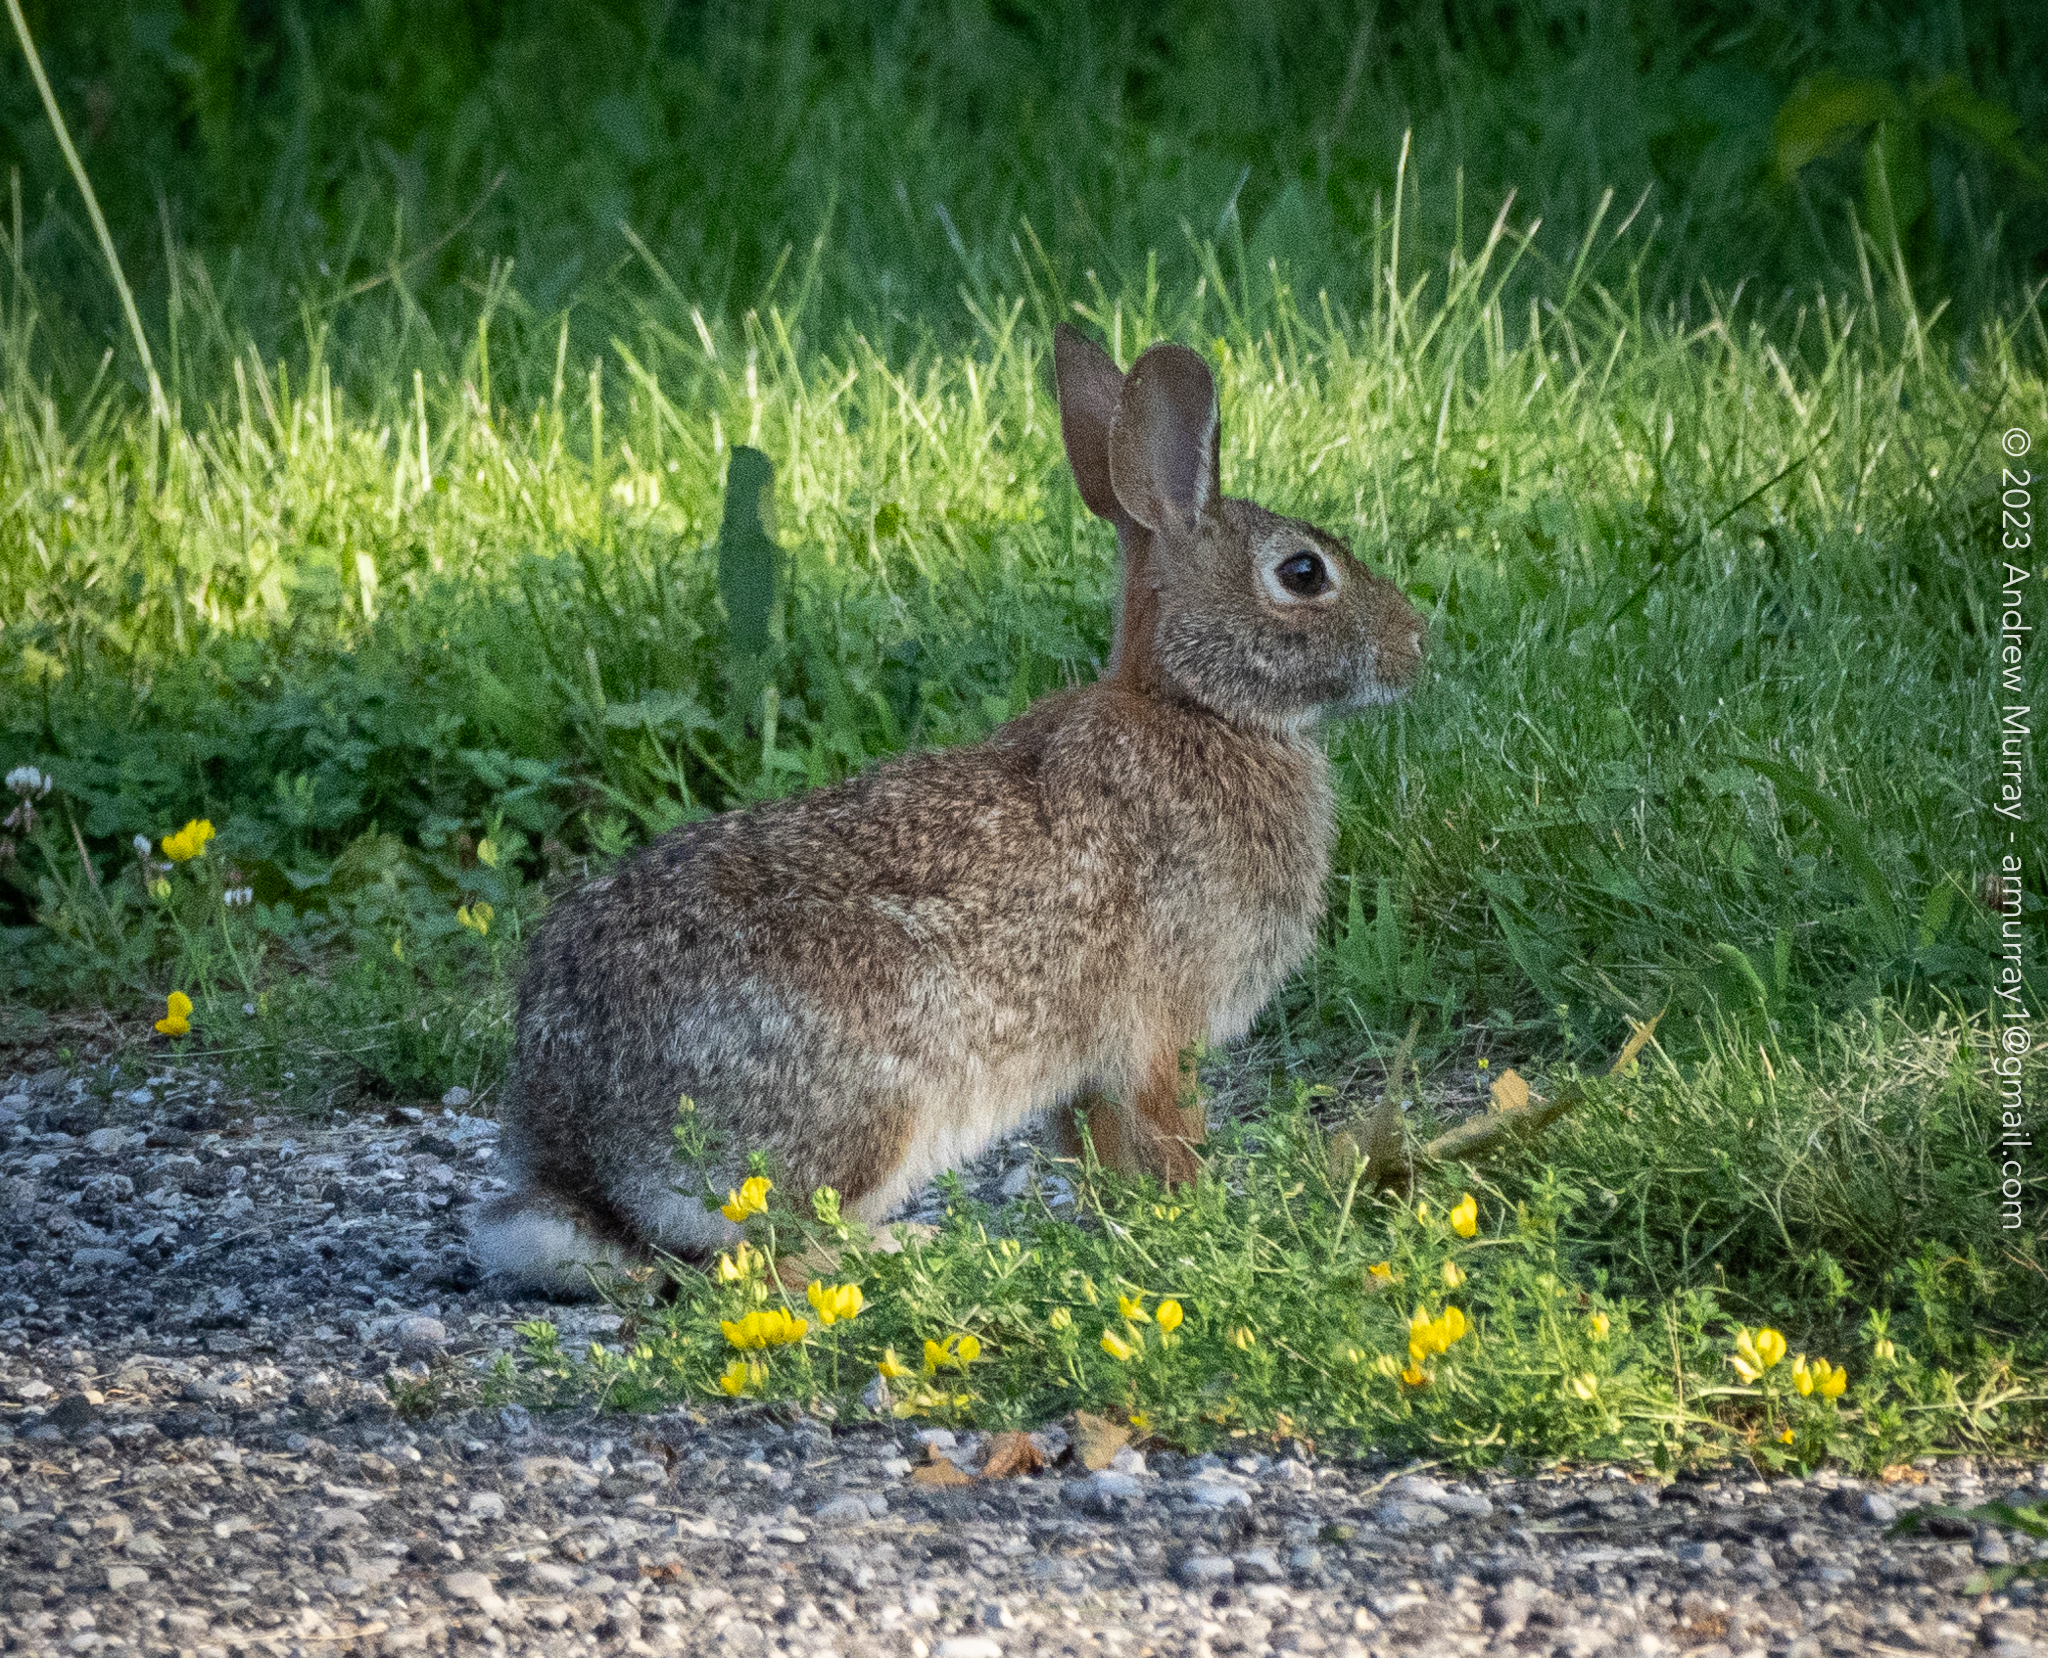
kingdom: Animalia
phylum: Chordata
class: Mammalia
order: Lagomorpha
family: Leporidae
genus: Sylvilagus
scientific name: Sylvilagus floridanus
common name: Eastern cottontail
